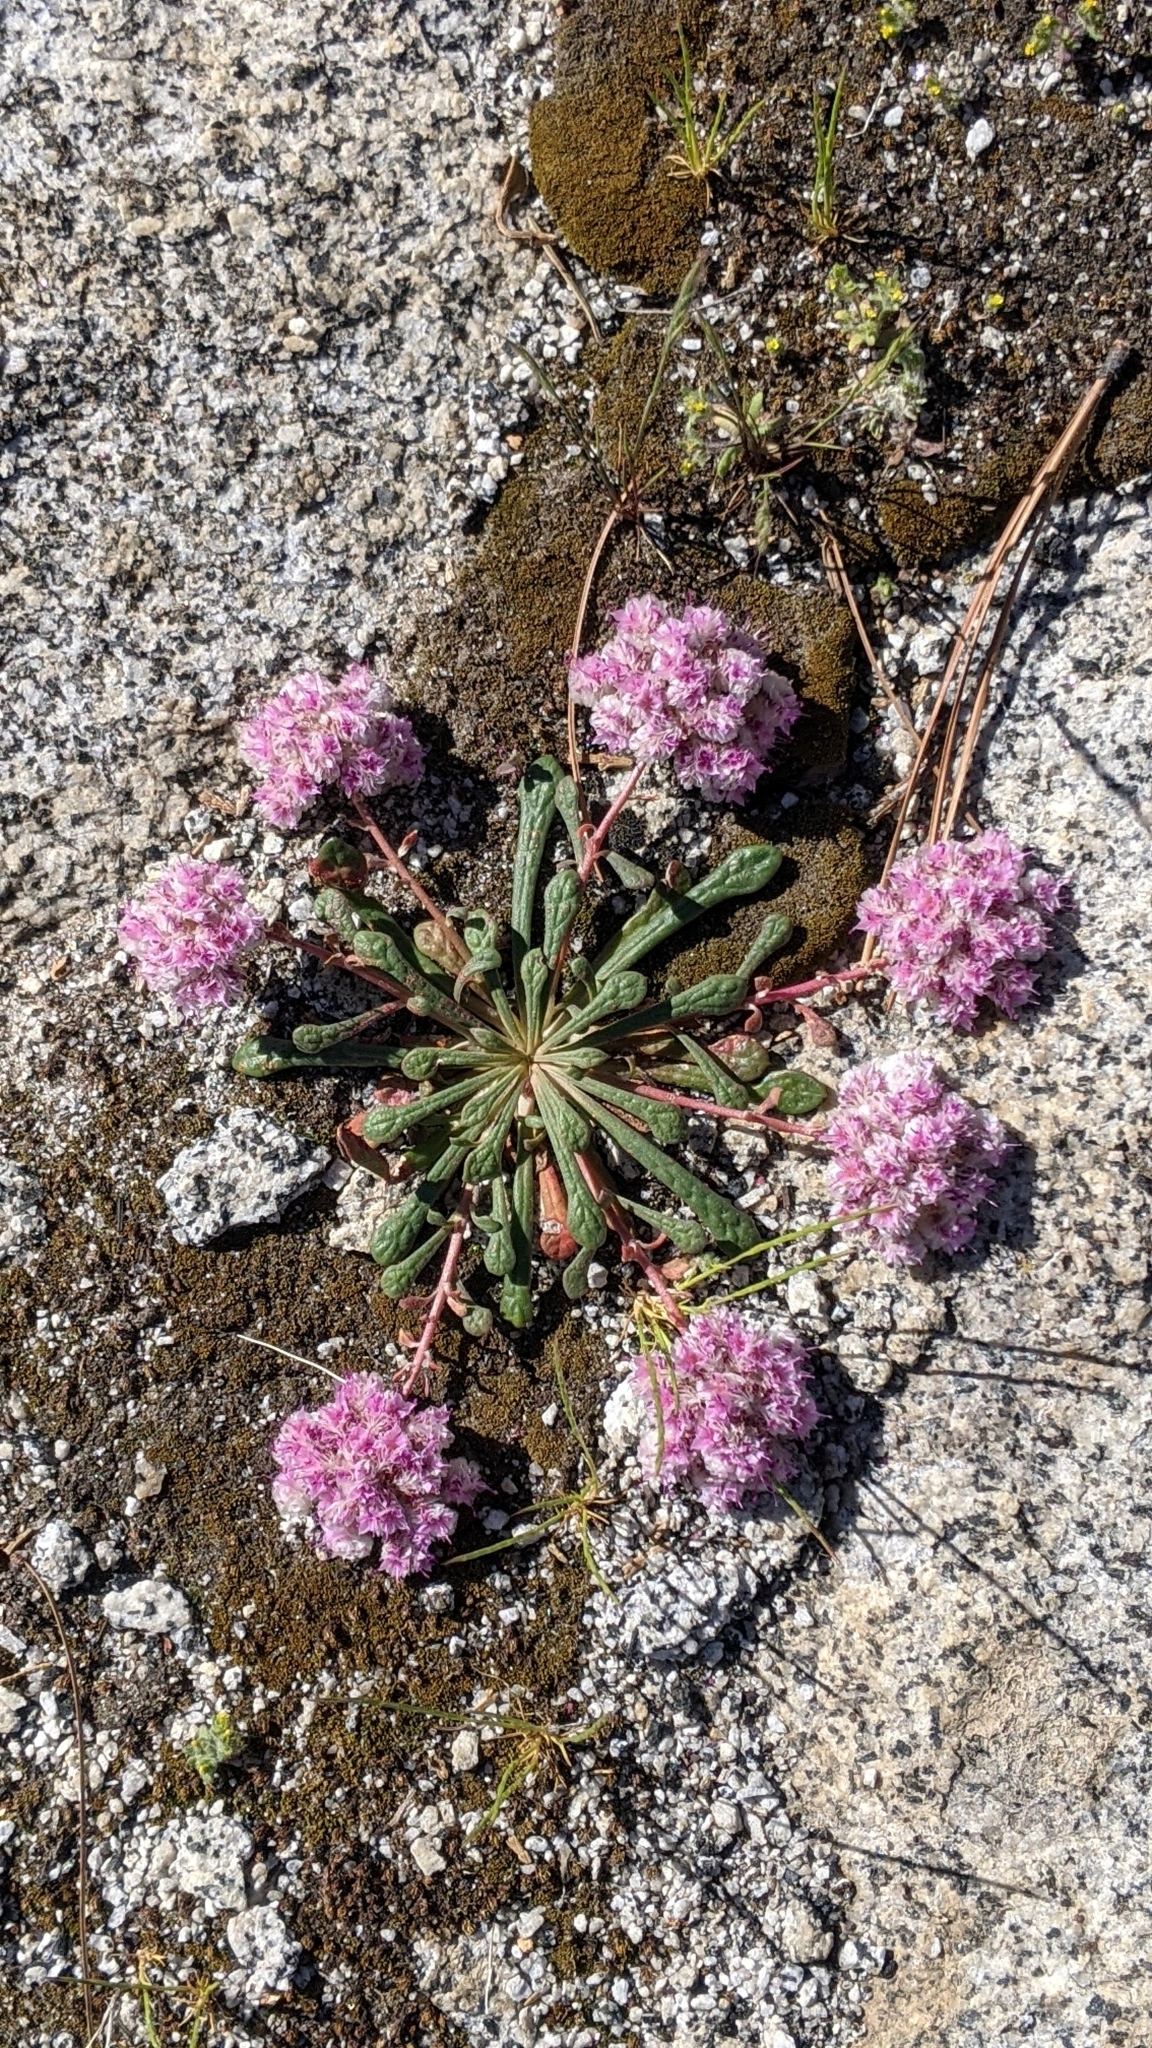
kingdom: Plantae
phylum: Tracheophyta
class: Magnoliopsida
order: Caryophyllales
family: Montiaceae
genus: Calyptridium
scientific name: Calyptridium monospermum
